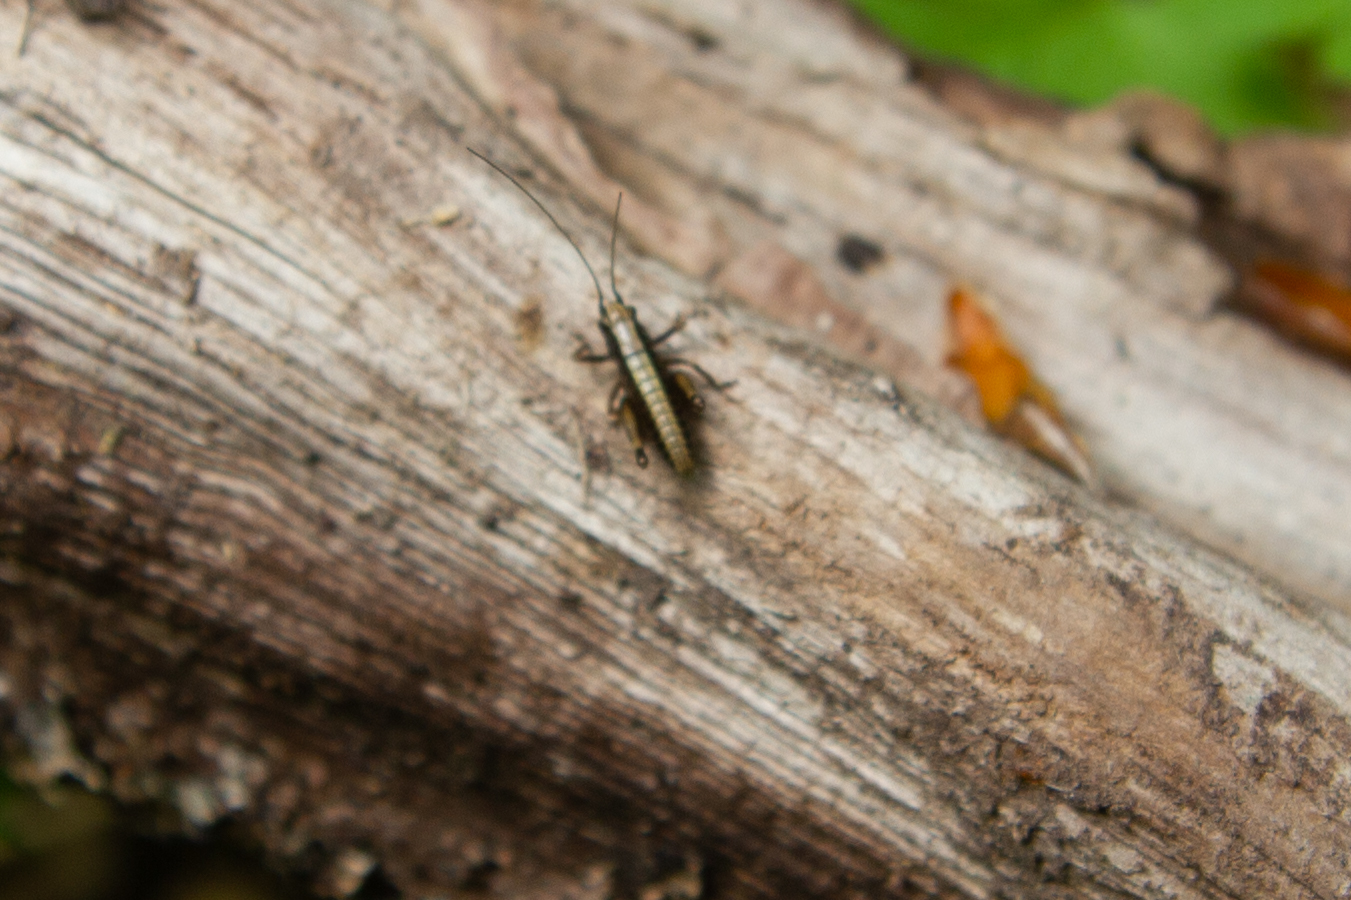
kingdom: Animalia
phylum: Arthropoda
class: Insecta
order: Orthoptera
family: Tettigoniidae
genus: Pholidoptera
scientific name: Pholidoptera griseoaptera
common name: Dark bush-cricket
